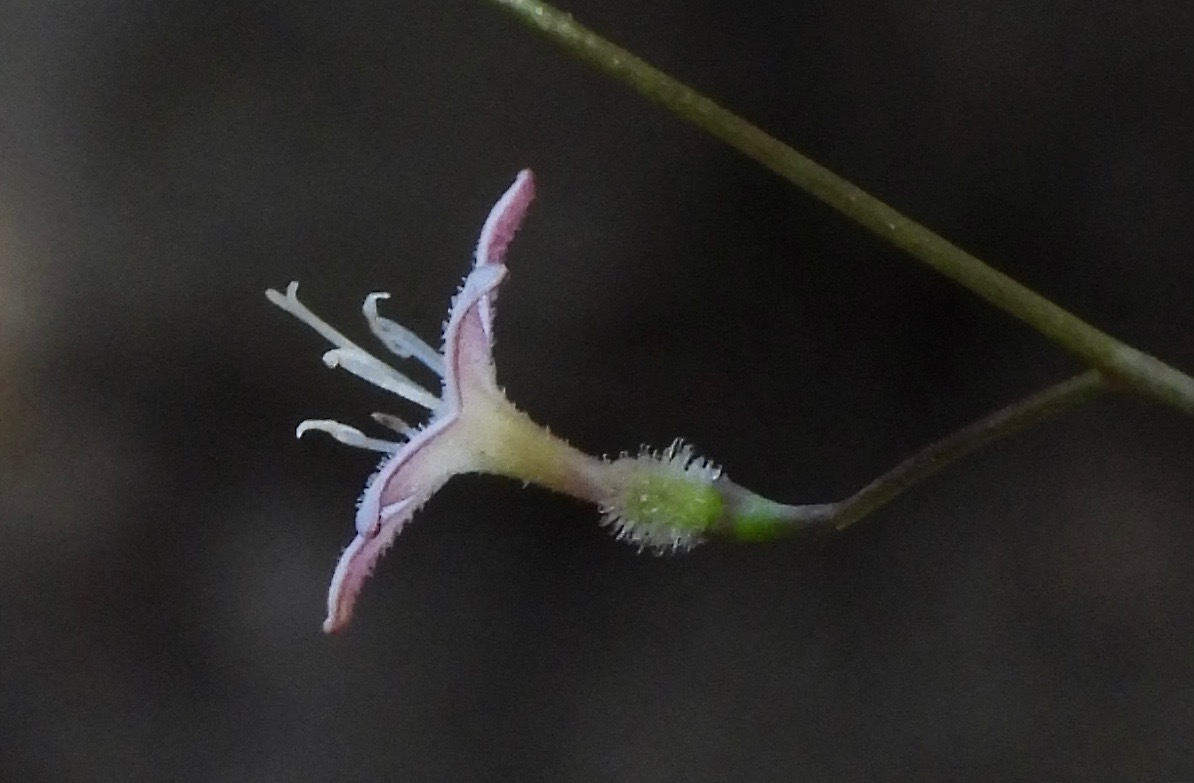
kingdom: Plantae
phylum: Tracheophyta
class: Magnoliopsida
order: Gentianales
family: Rubiaceae
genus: Kelloggia
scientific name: Kelloggia galioides
